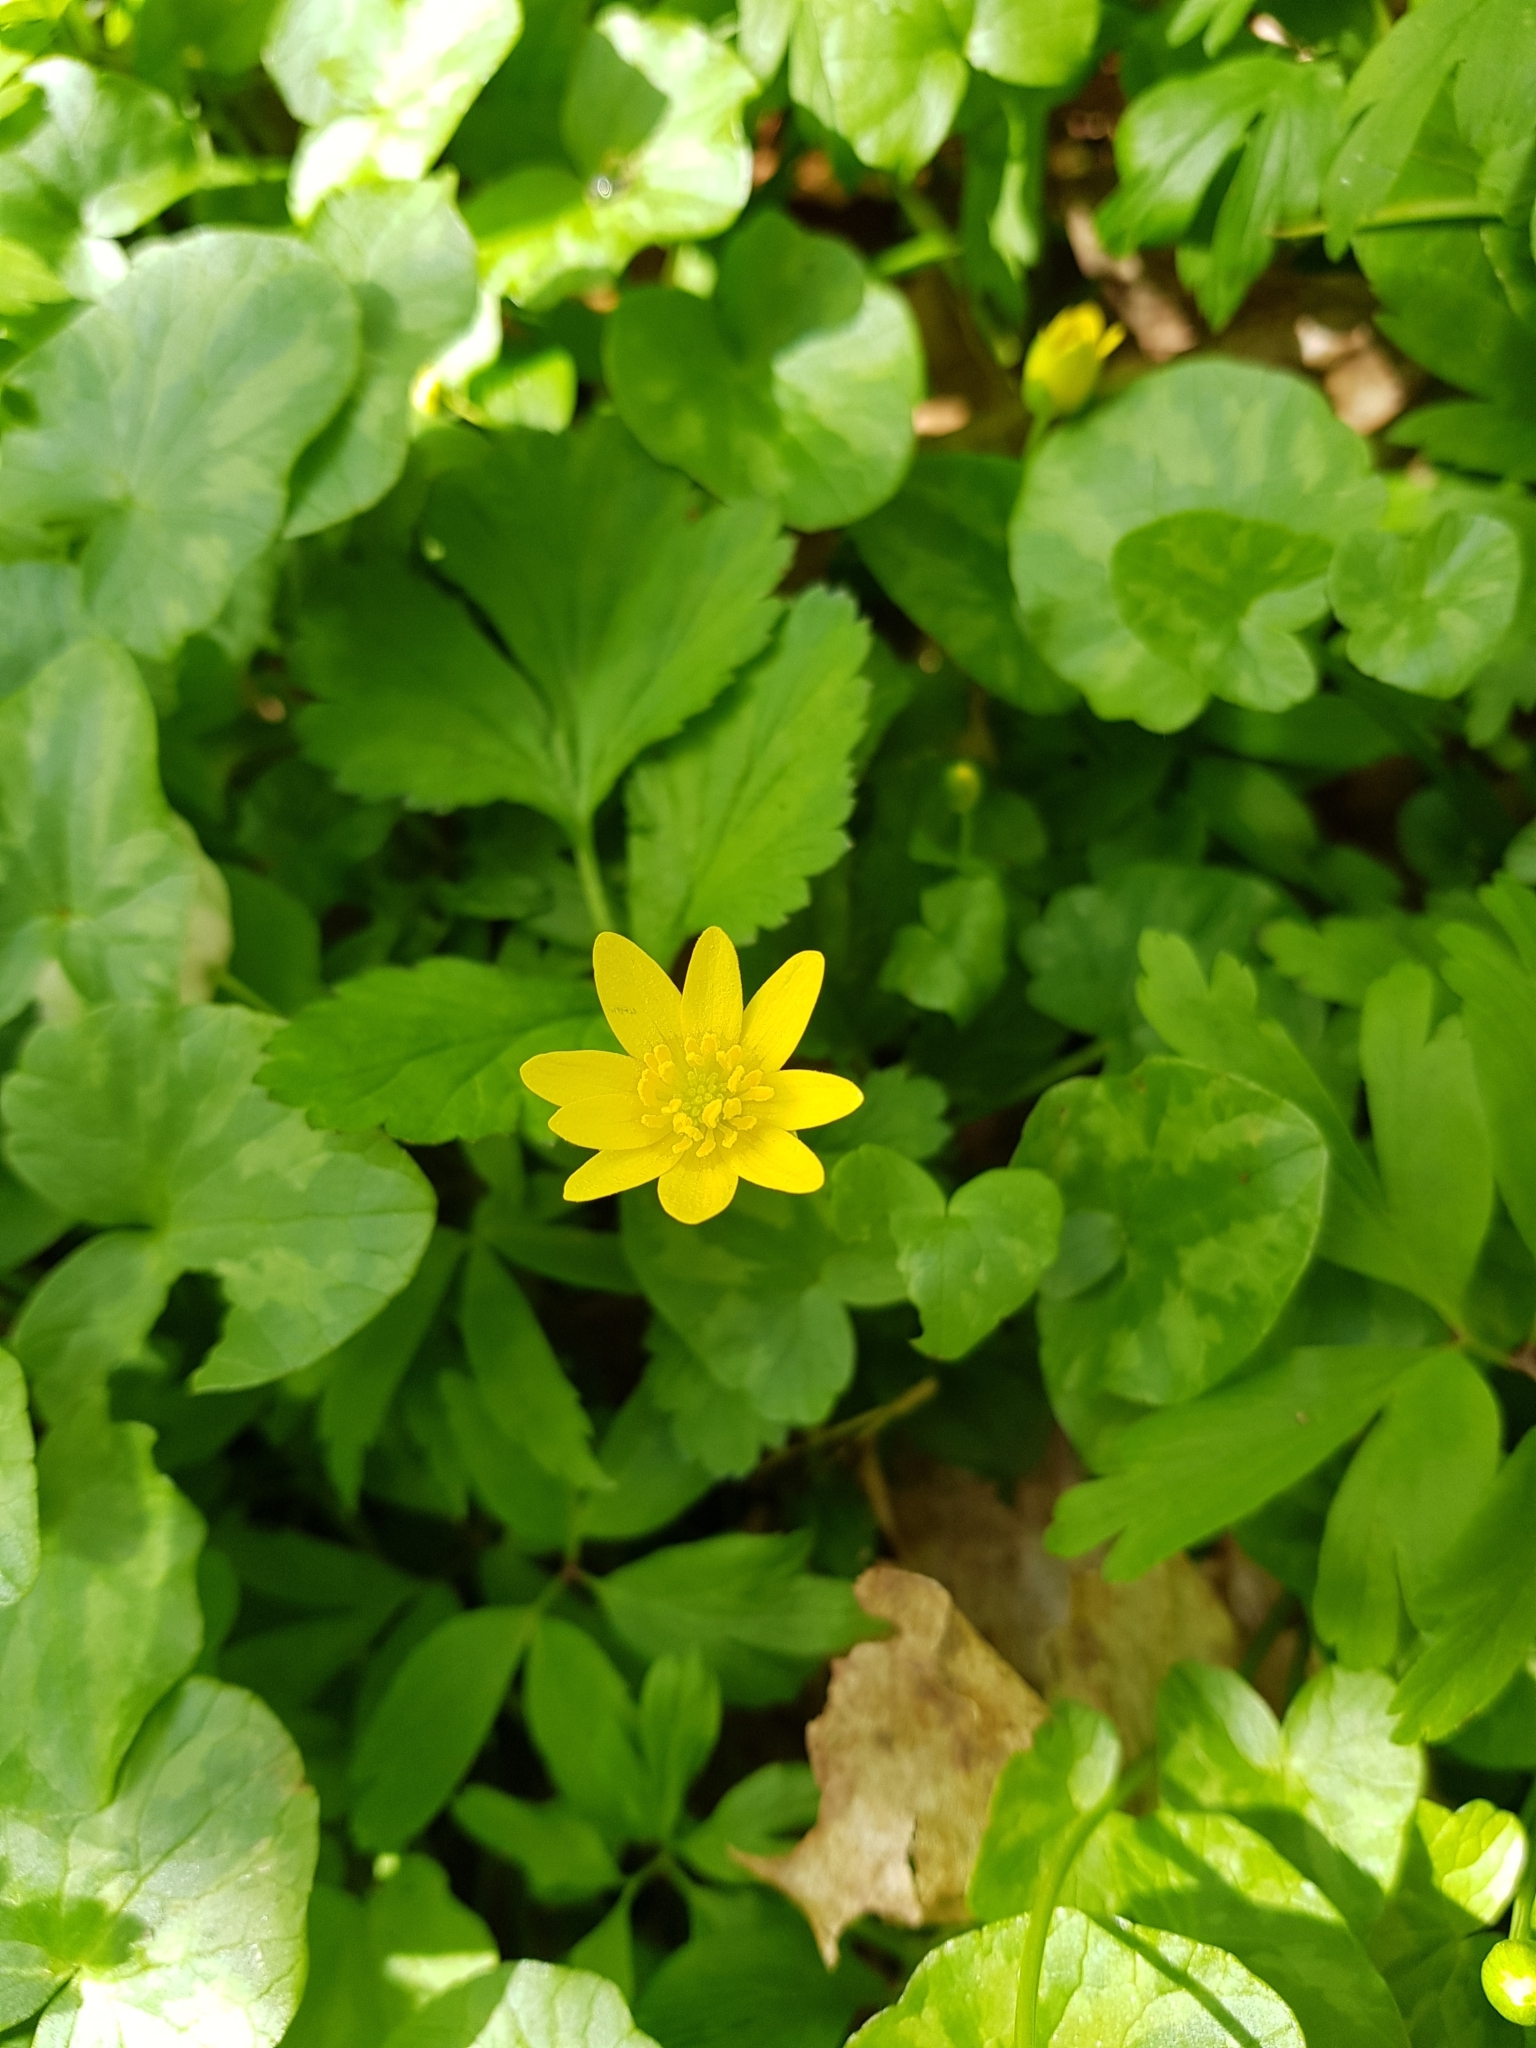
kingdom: Plantae
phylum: Tracheophyta
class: Magnoliopsida
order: Ranunculales
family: Ranunculaceae
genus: Ficaria
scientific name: Ficaria verna
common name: Lesser celandine
